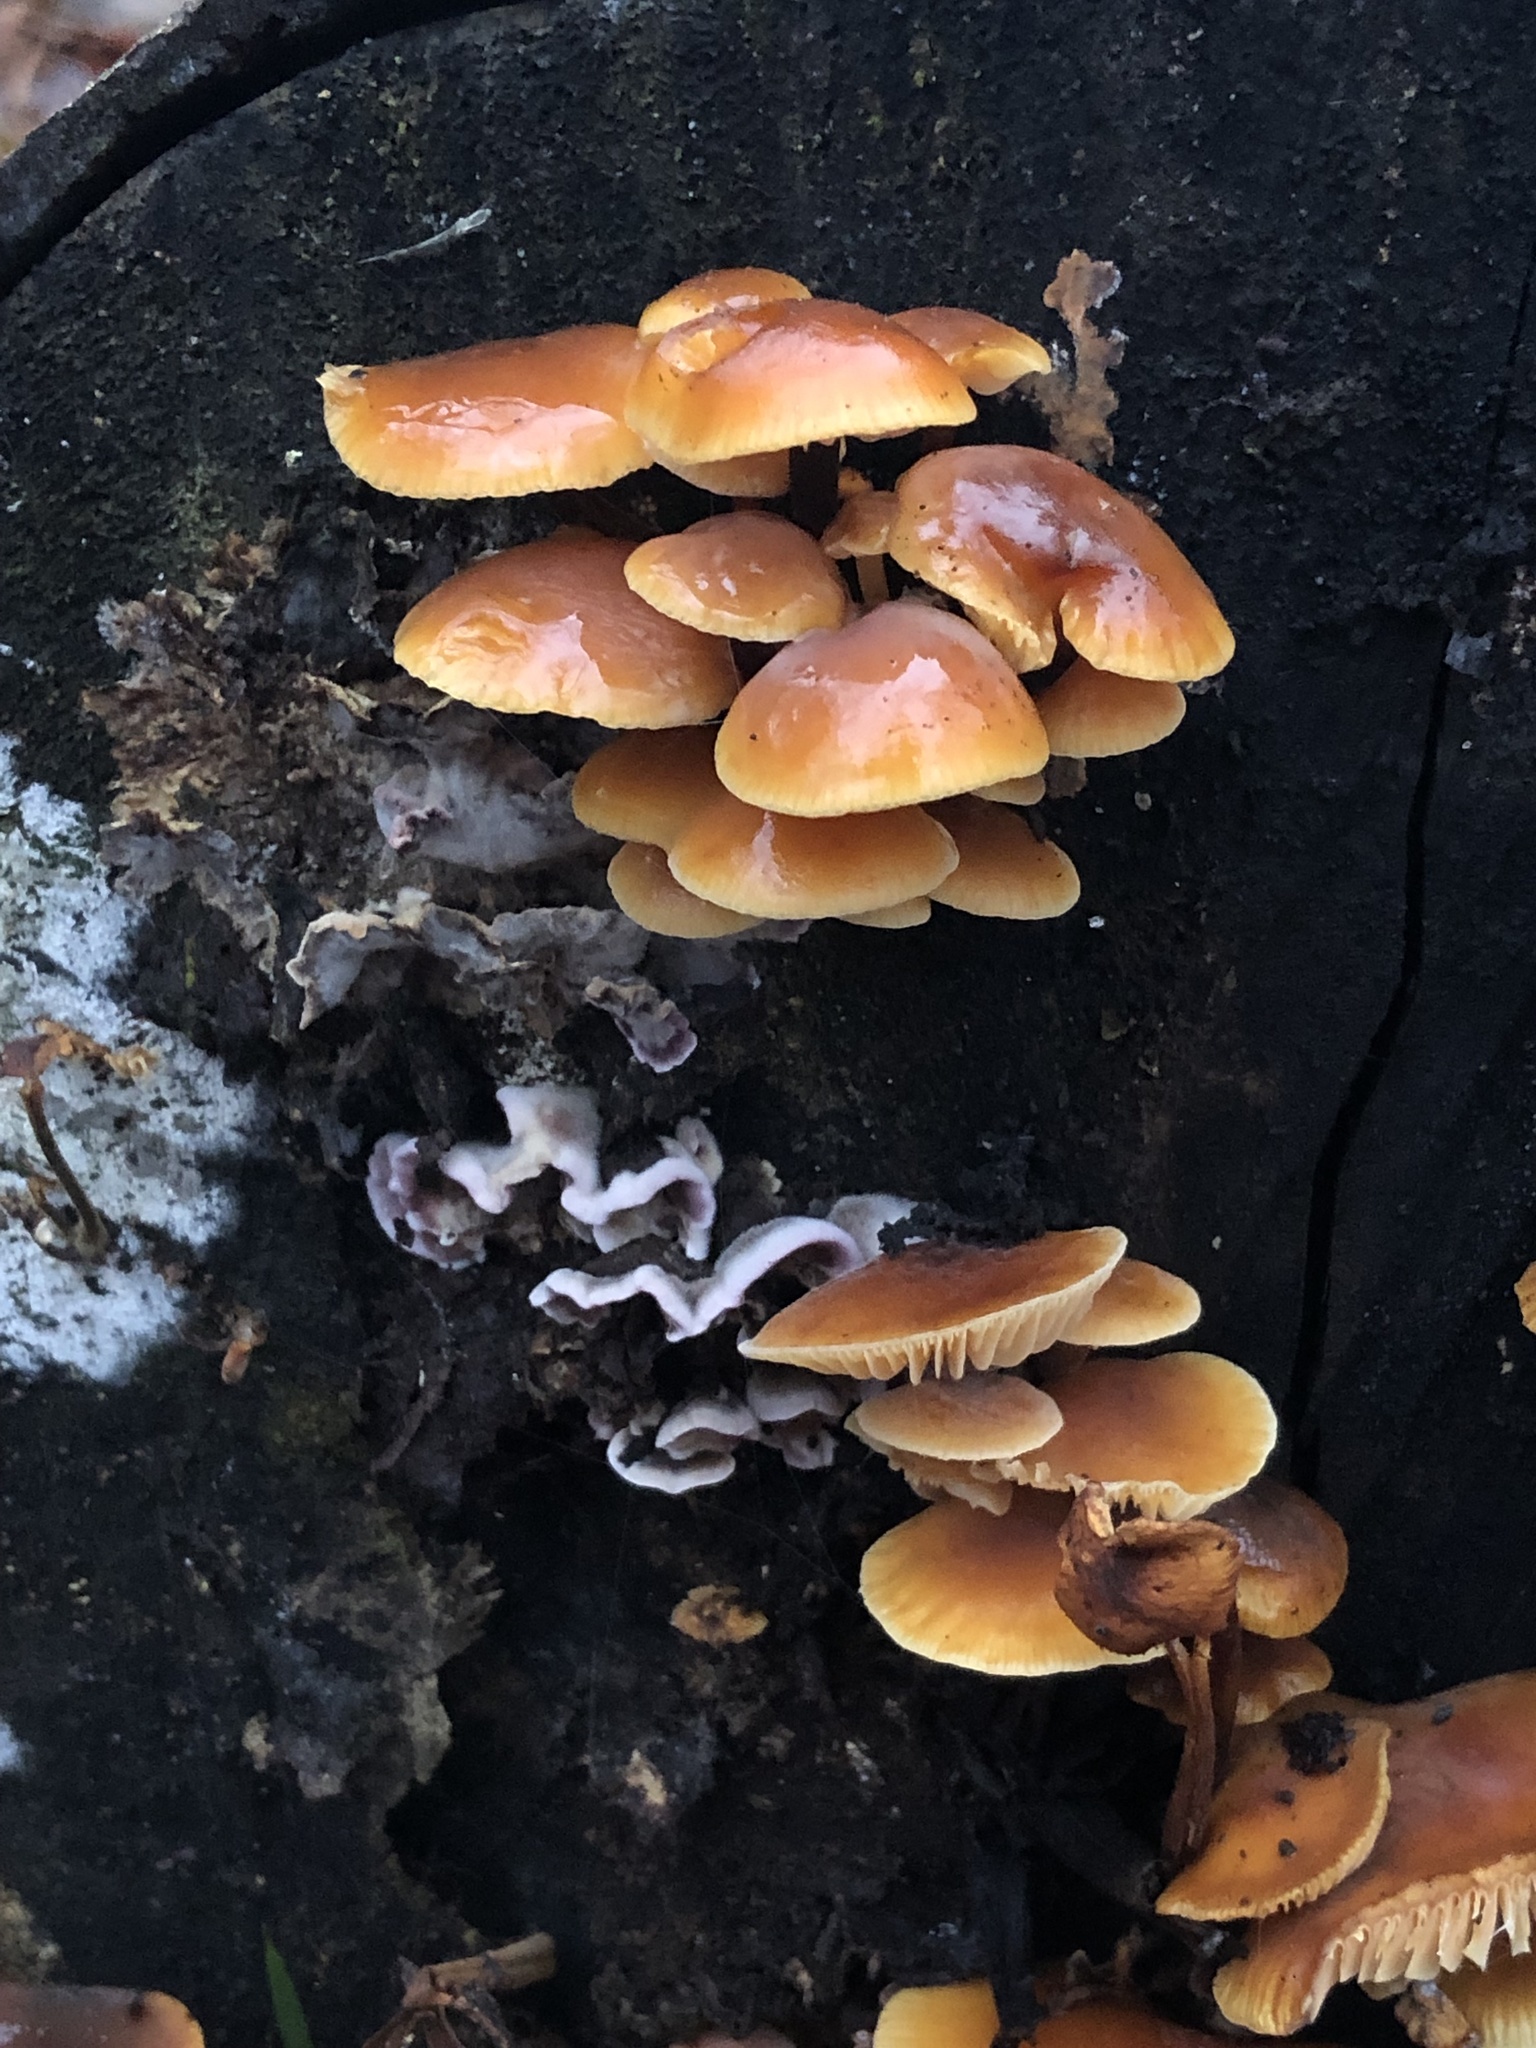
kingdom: Fungi
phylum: Basidiomycota
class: Agaricomycetes
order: Agaricales
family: Physalacriaceae
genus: Flammulina
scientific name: Flammulina
